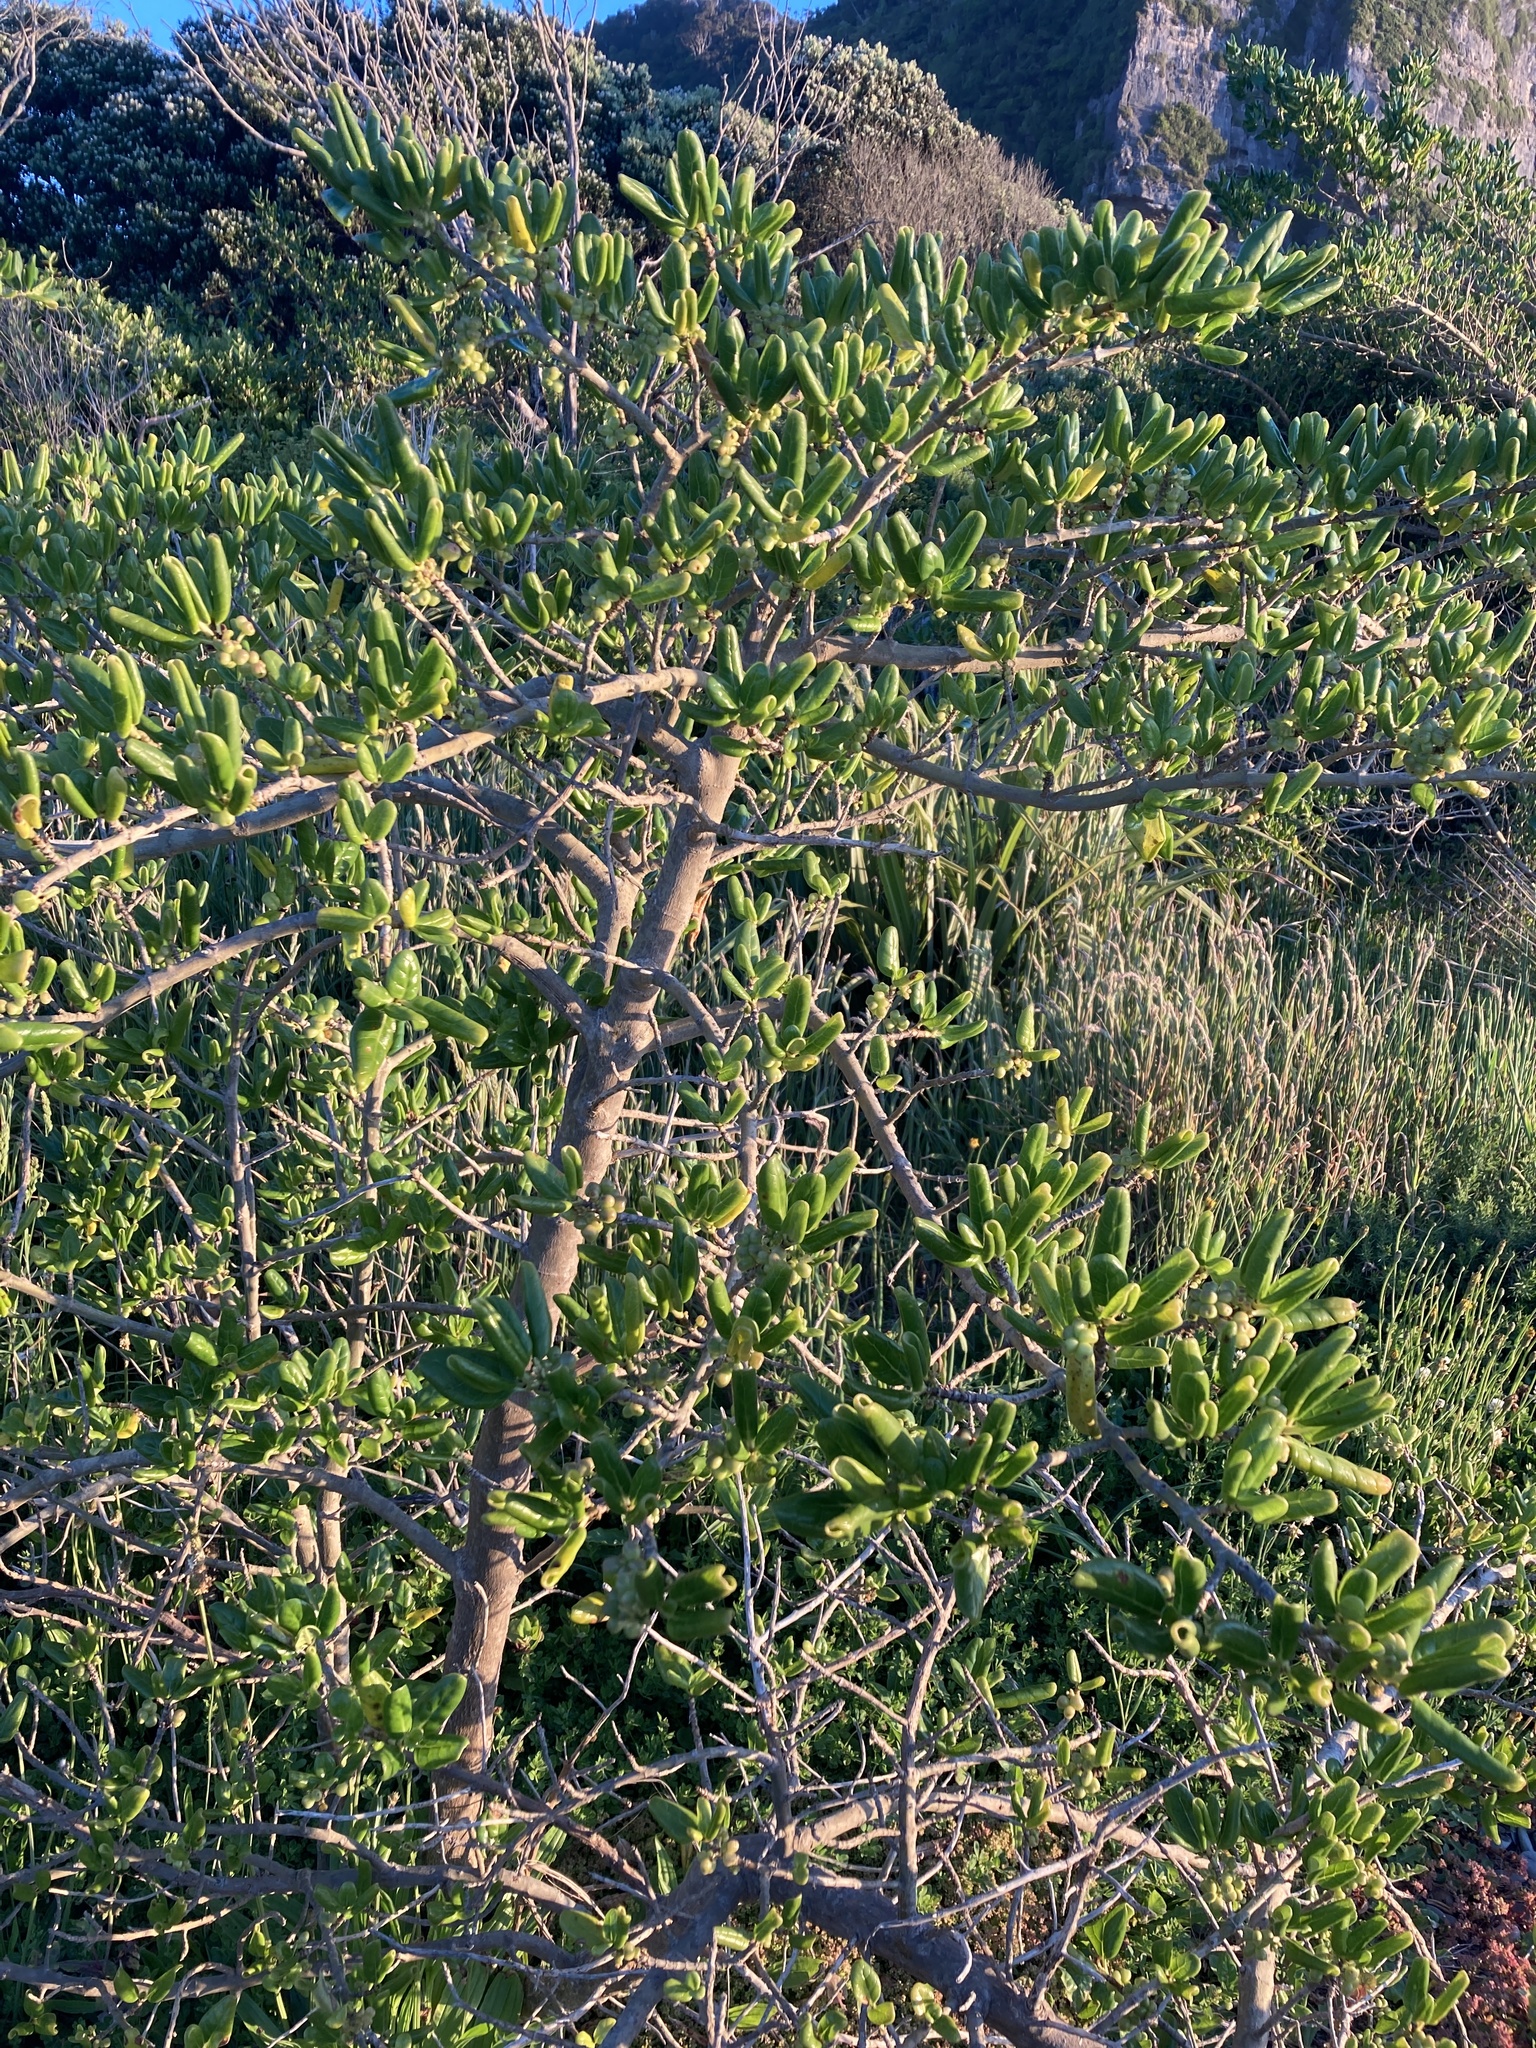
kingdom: Plantae
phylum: Tracheophyta
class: Magnoliopsida
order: Gentianales
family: Rubiaceae
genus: Coprosma
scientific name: Coprosma repens
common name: Tree bedstraw
